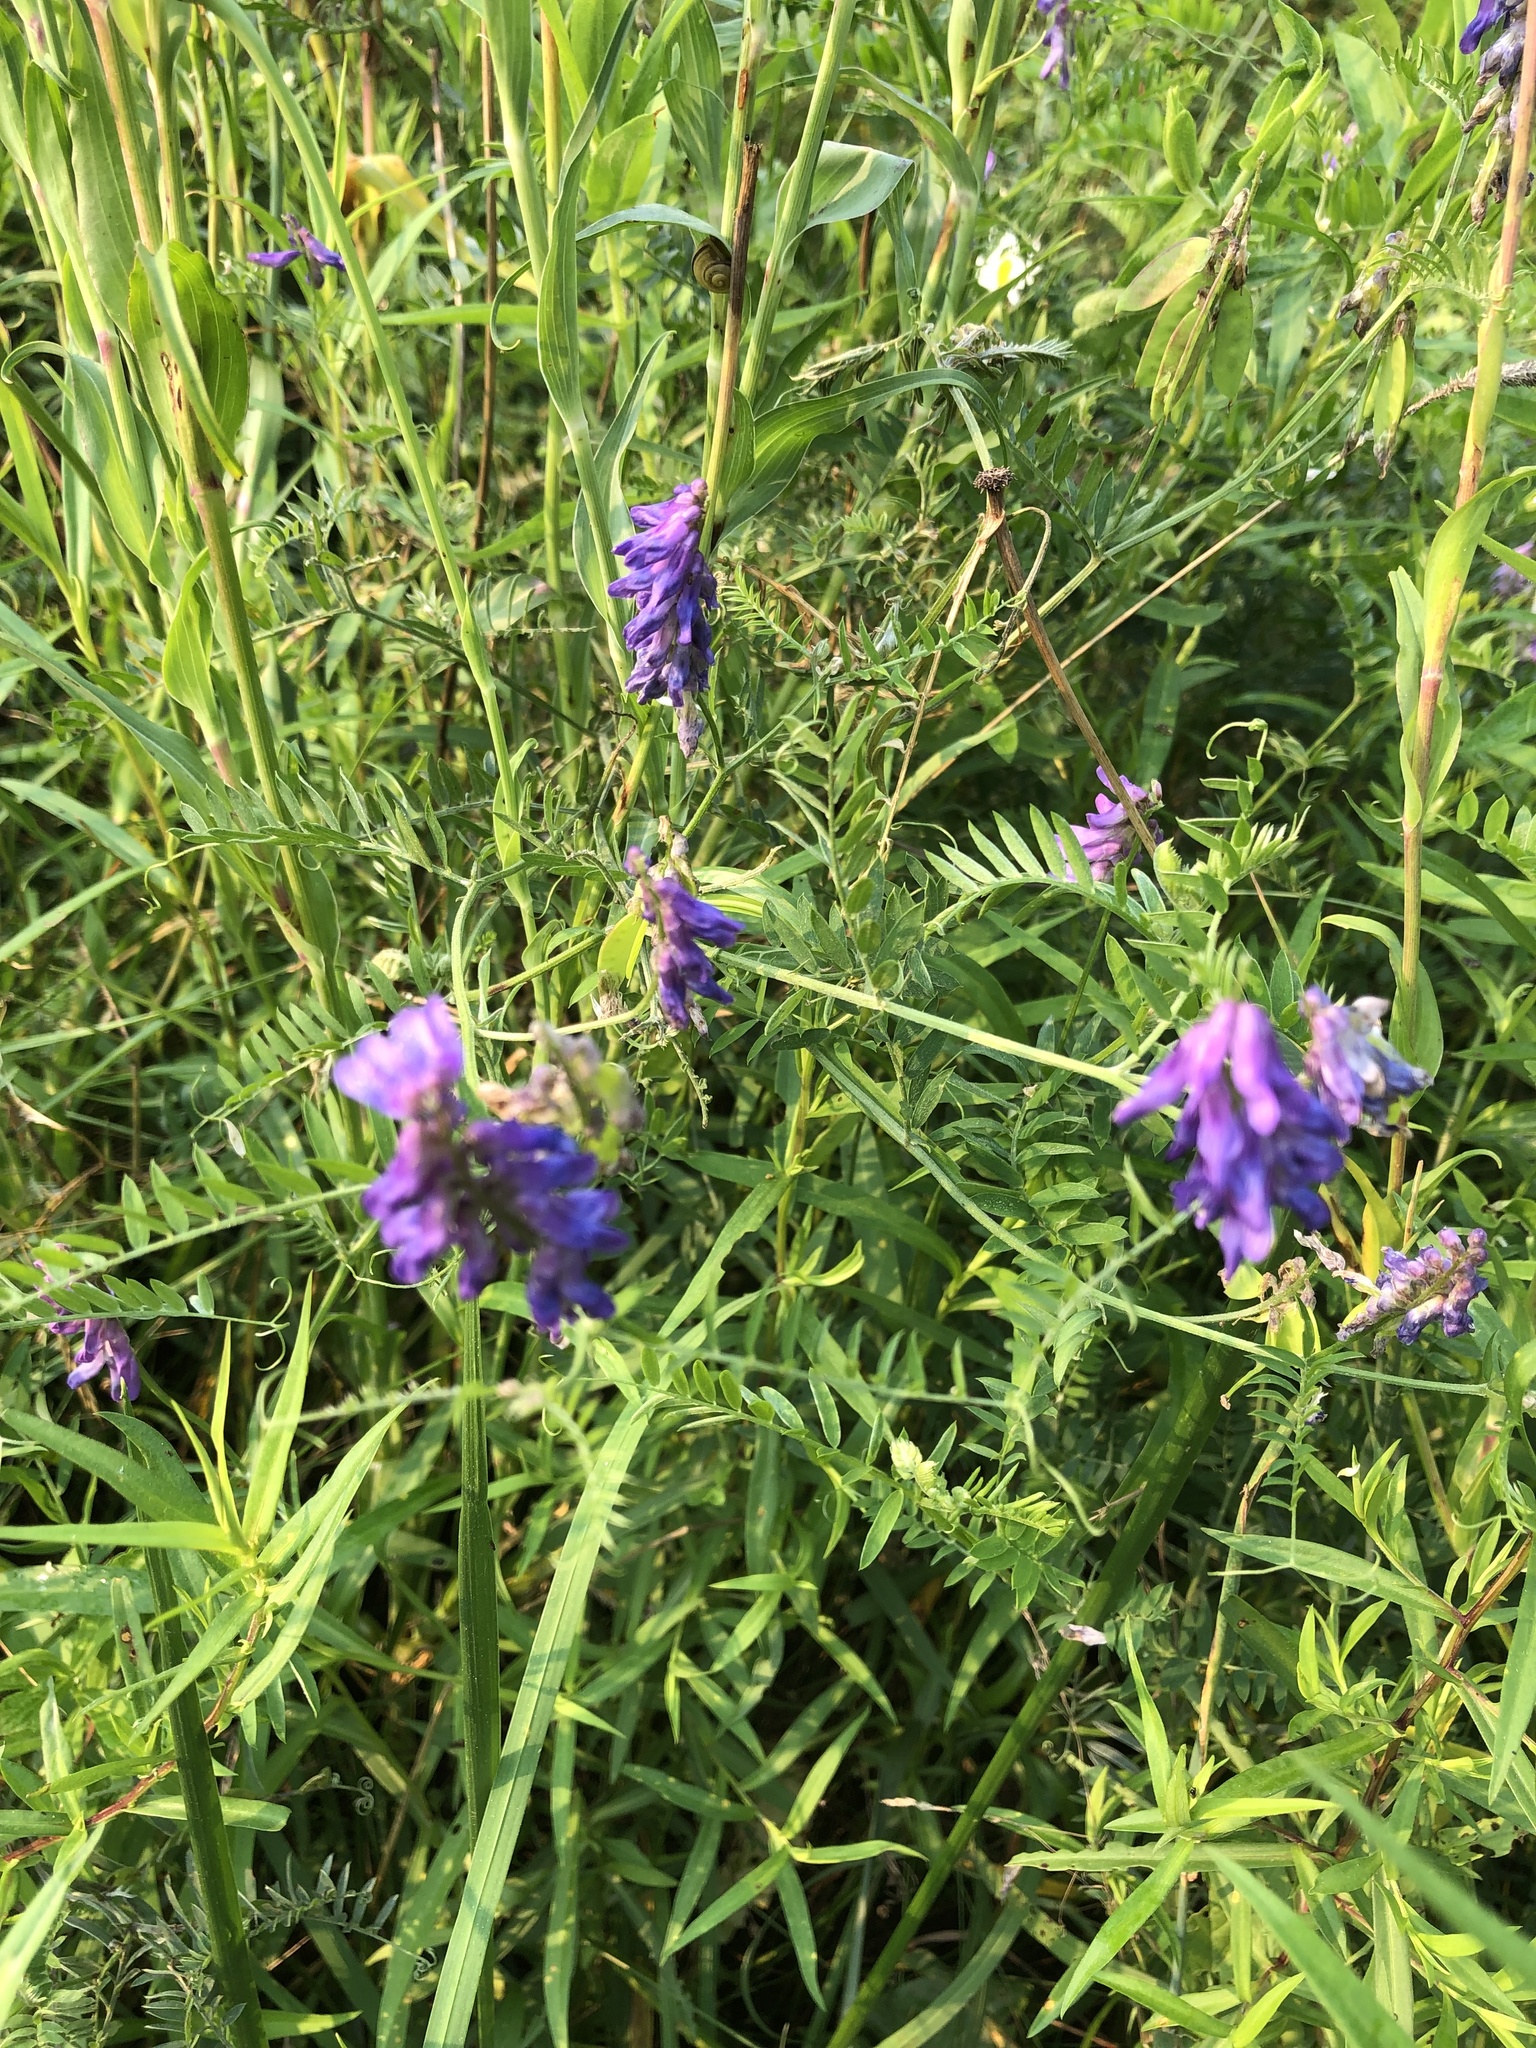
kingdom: Plantae
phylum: Tracheophyta
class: Magnoliopsida
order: Fabales
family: Fabaceae
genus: Vicia
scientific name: Vicia cracca
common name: Bird vetch
